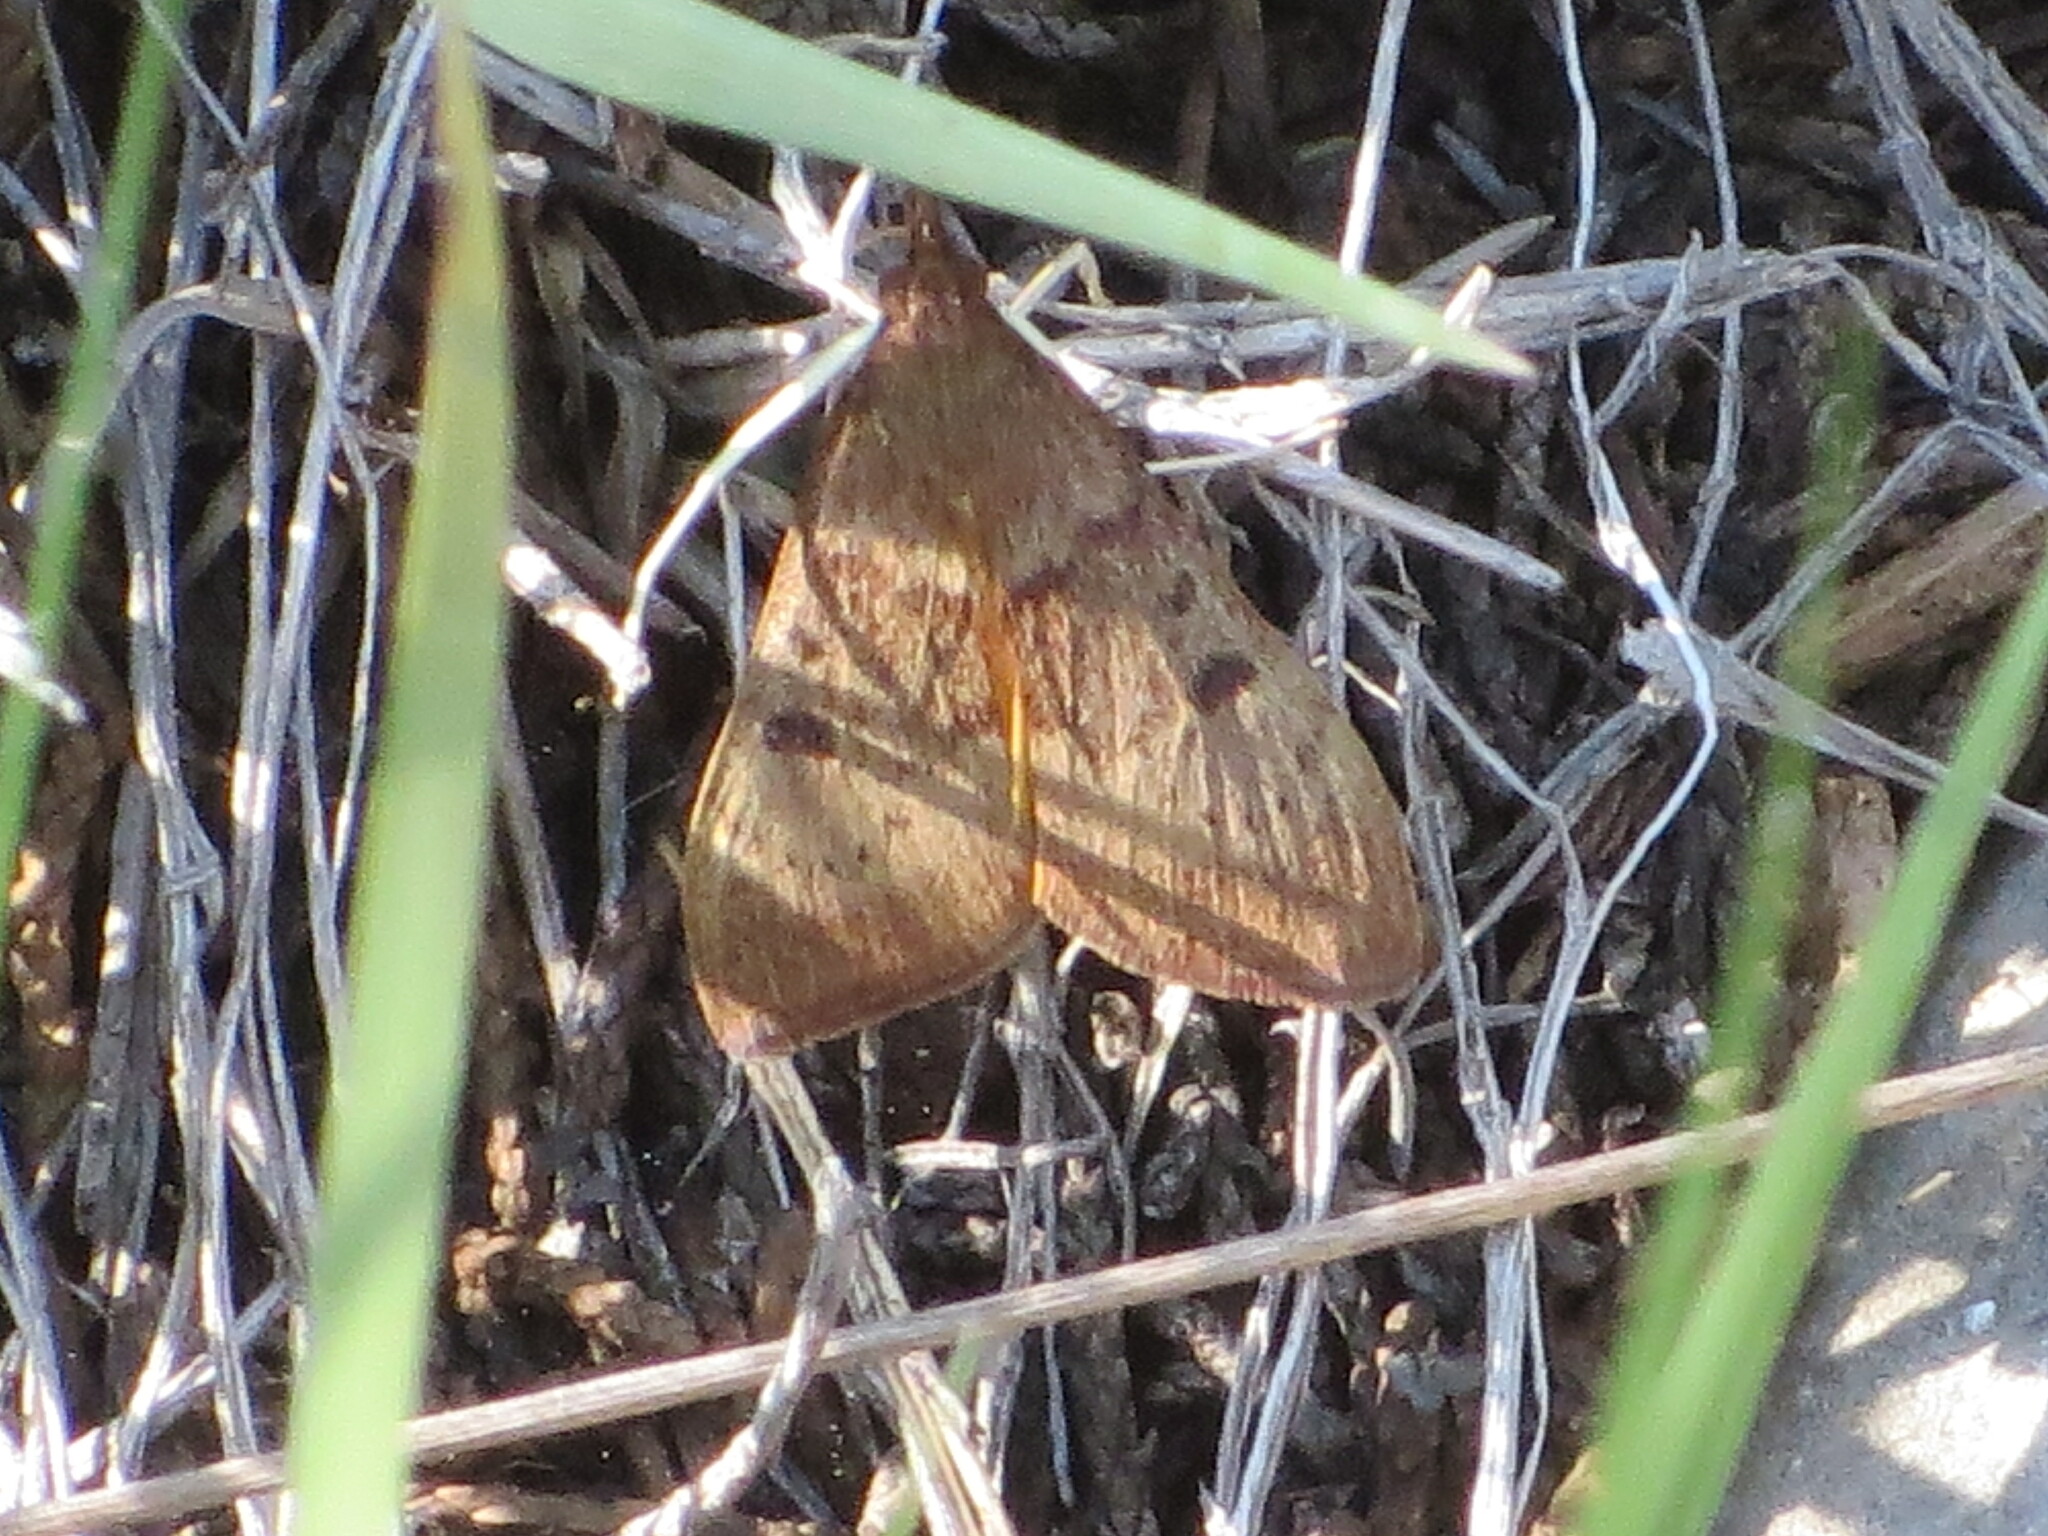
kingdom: Animalia
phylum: Arthropoda
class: Insecta
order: Lepidoptera
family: Crambidae
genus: Uresiphita
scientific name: Uresiphita reversalis
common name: Genista broom moth
